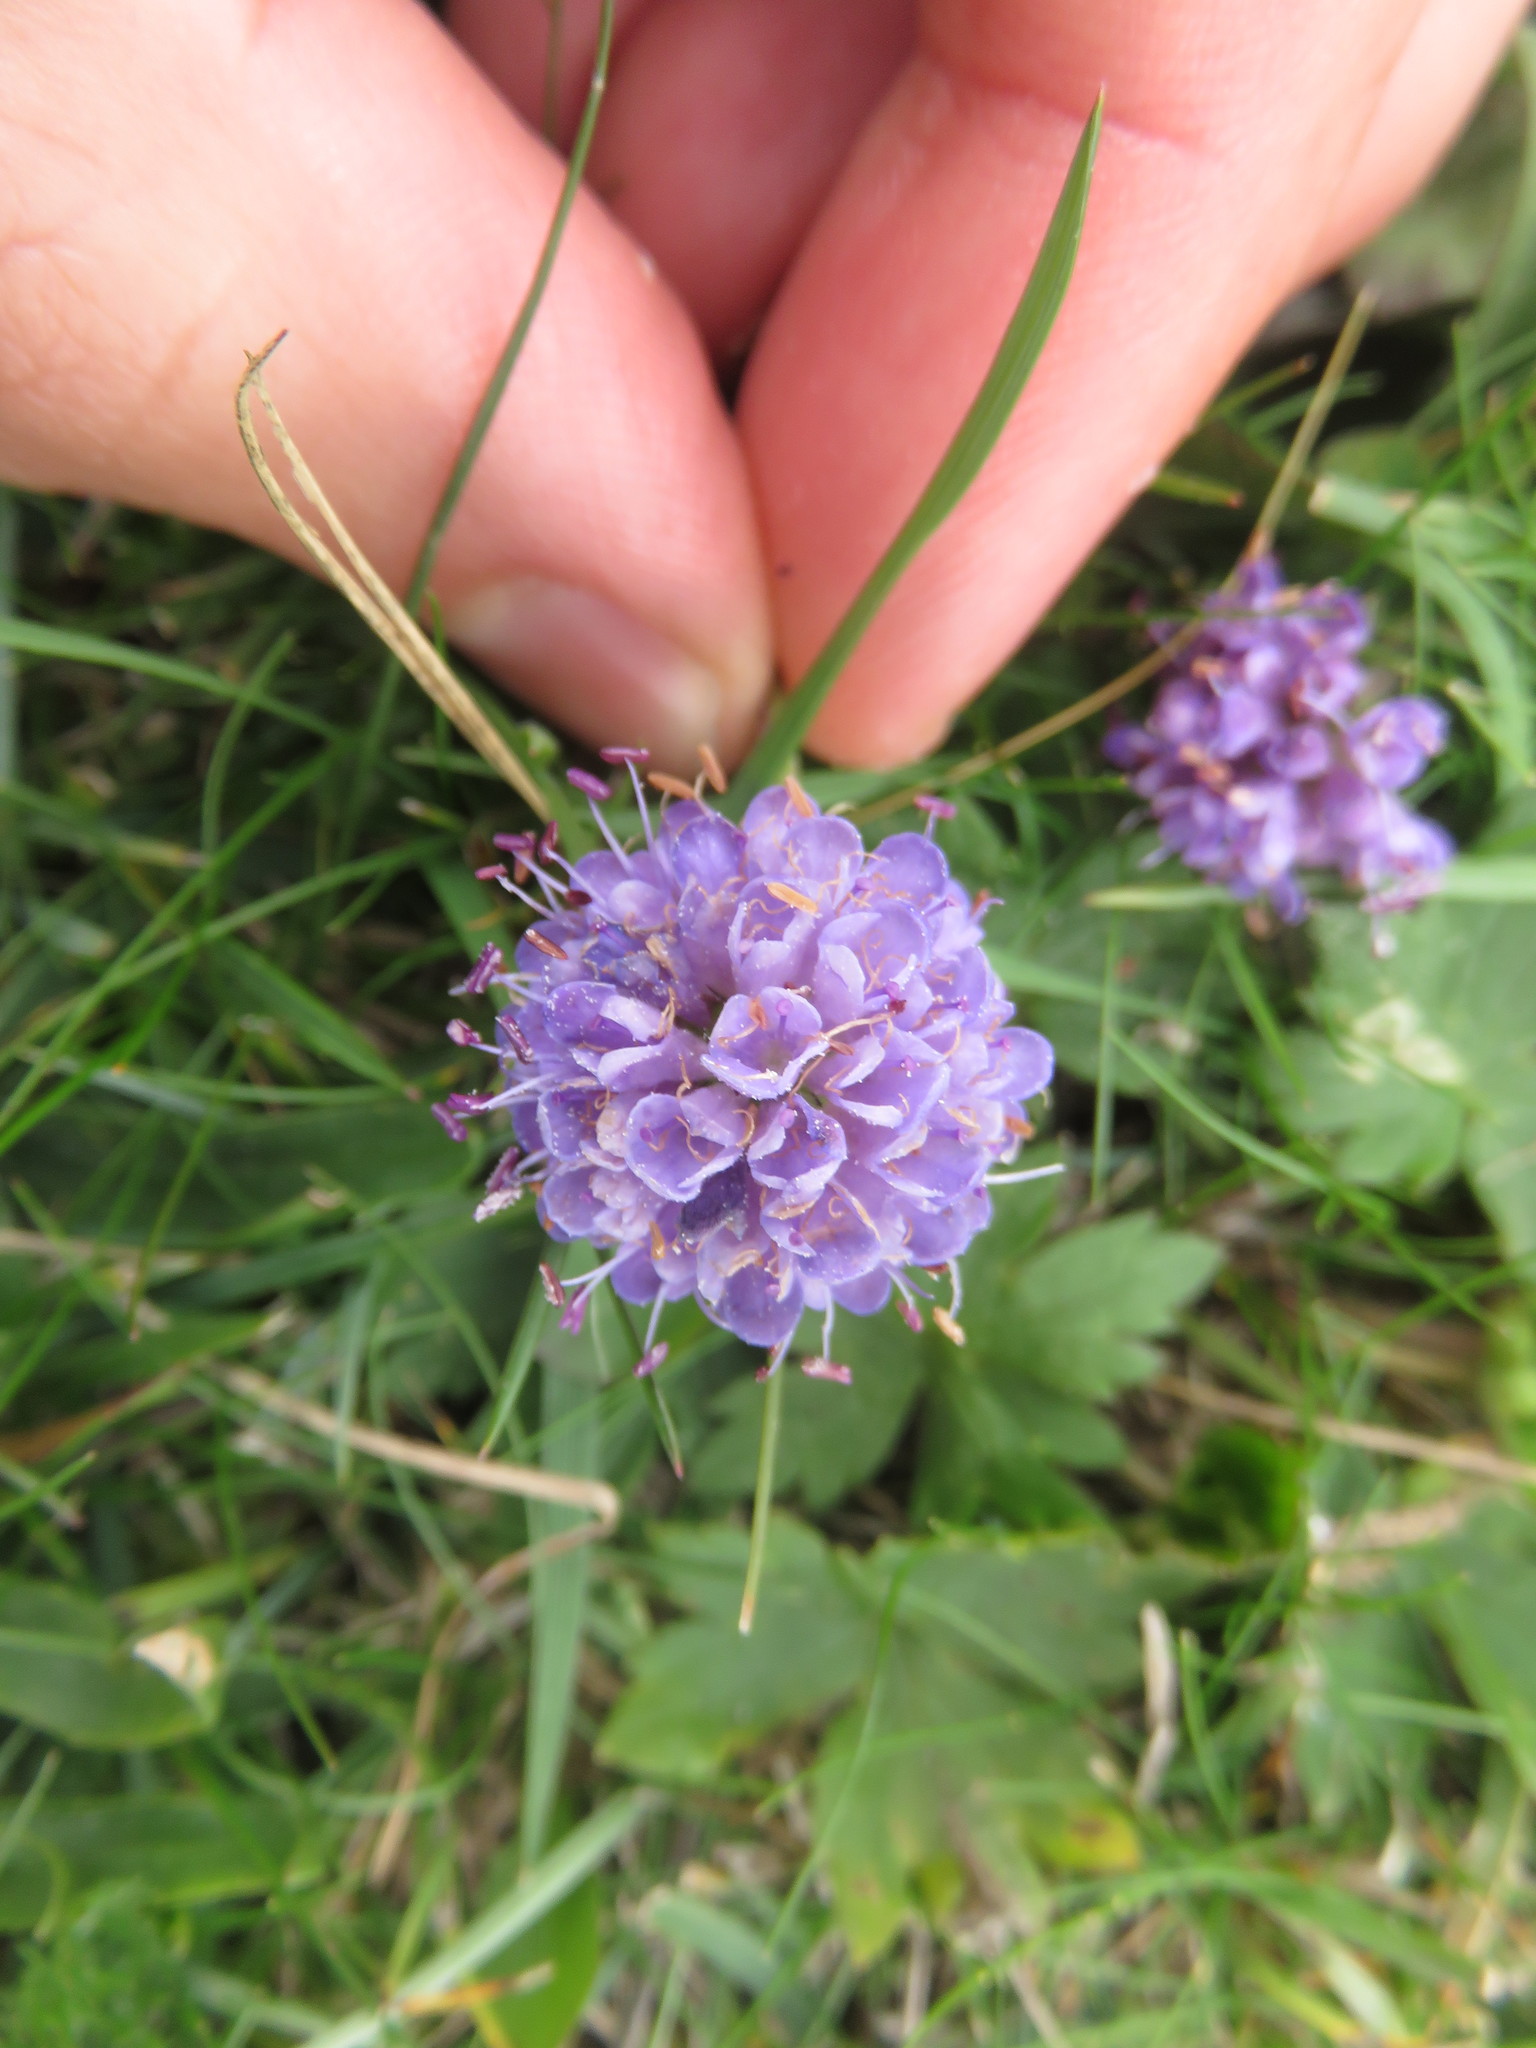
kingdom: Plantae
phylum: Tracheophyta
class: Magnoliopsida
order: Dipsacales
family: Caprifoliaceae
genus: Succisa
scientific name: Succisa pratensis
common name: Devil's-bit
